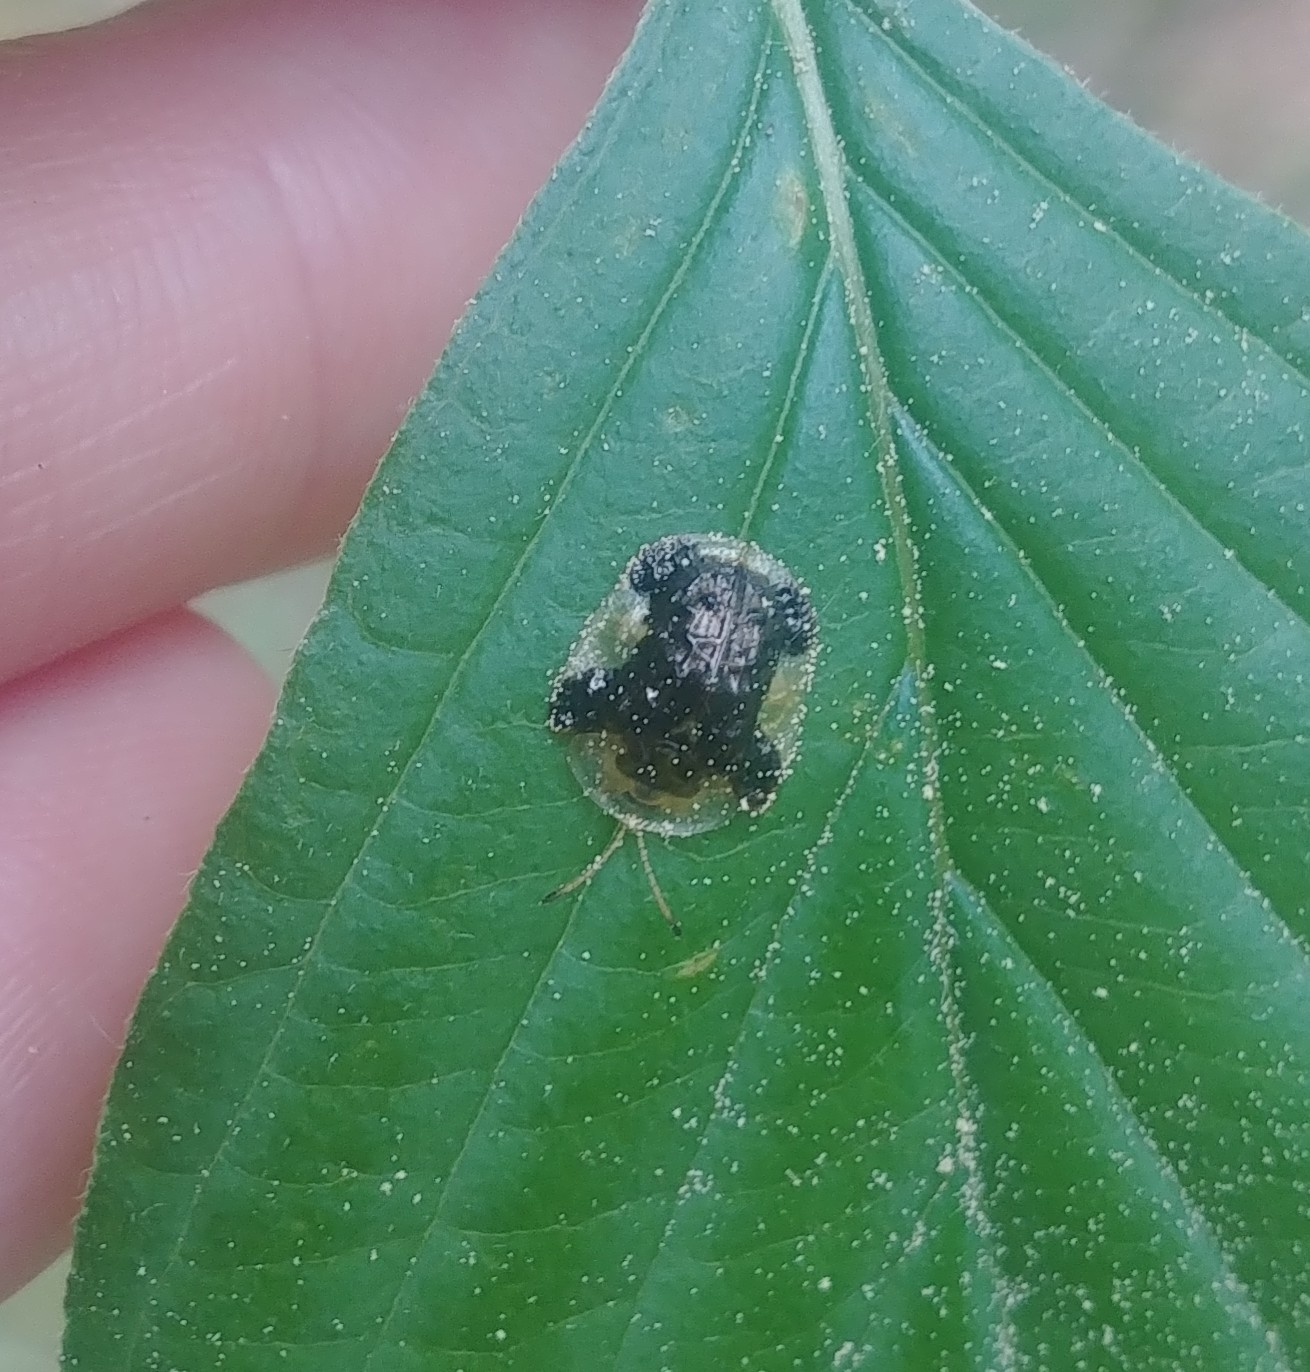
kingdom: Animalia
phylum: Arthropoda
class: Insecta
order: Coleoptera
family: Chrysomelidae
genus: Helocassis
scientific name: Helocassis clavata
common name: Clavate tortoise beetle
